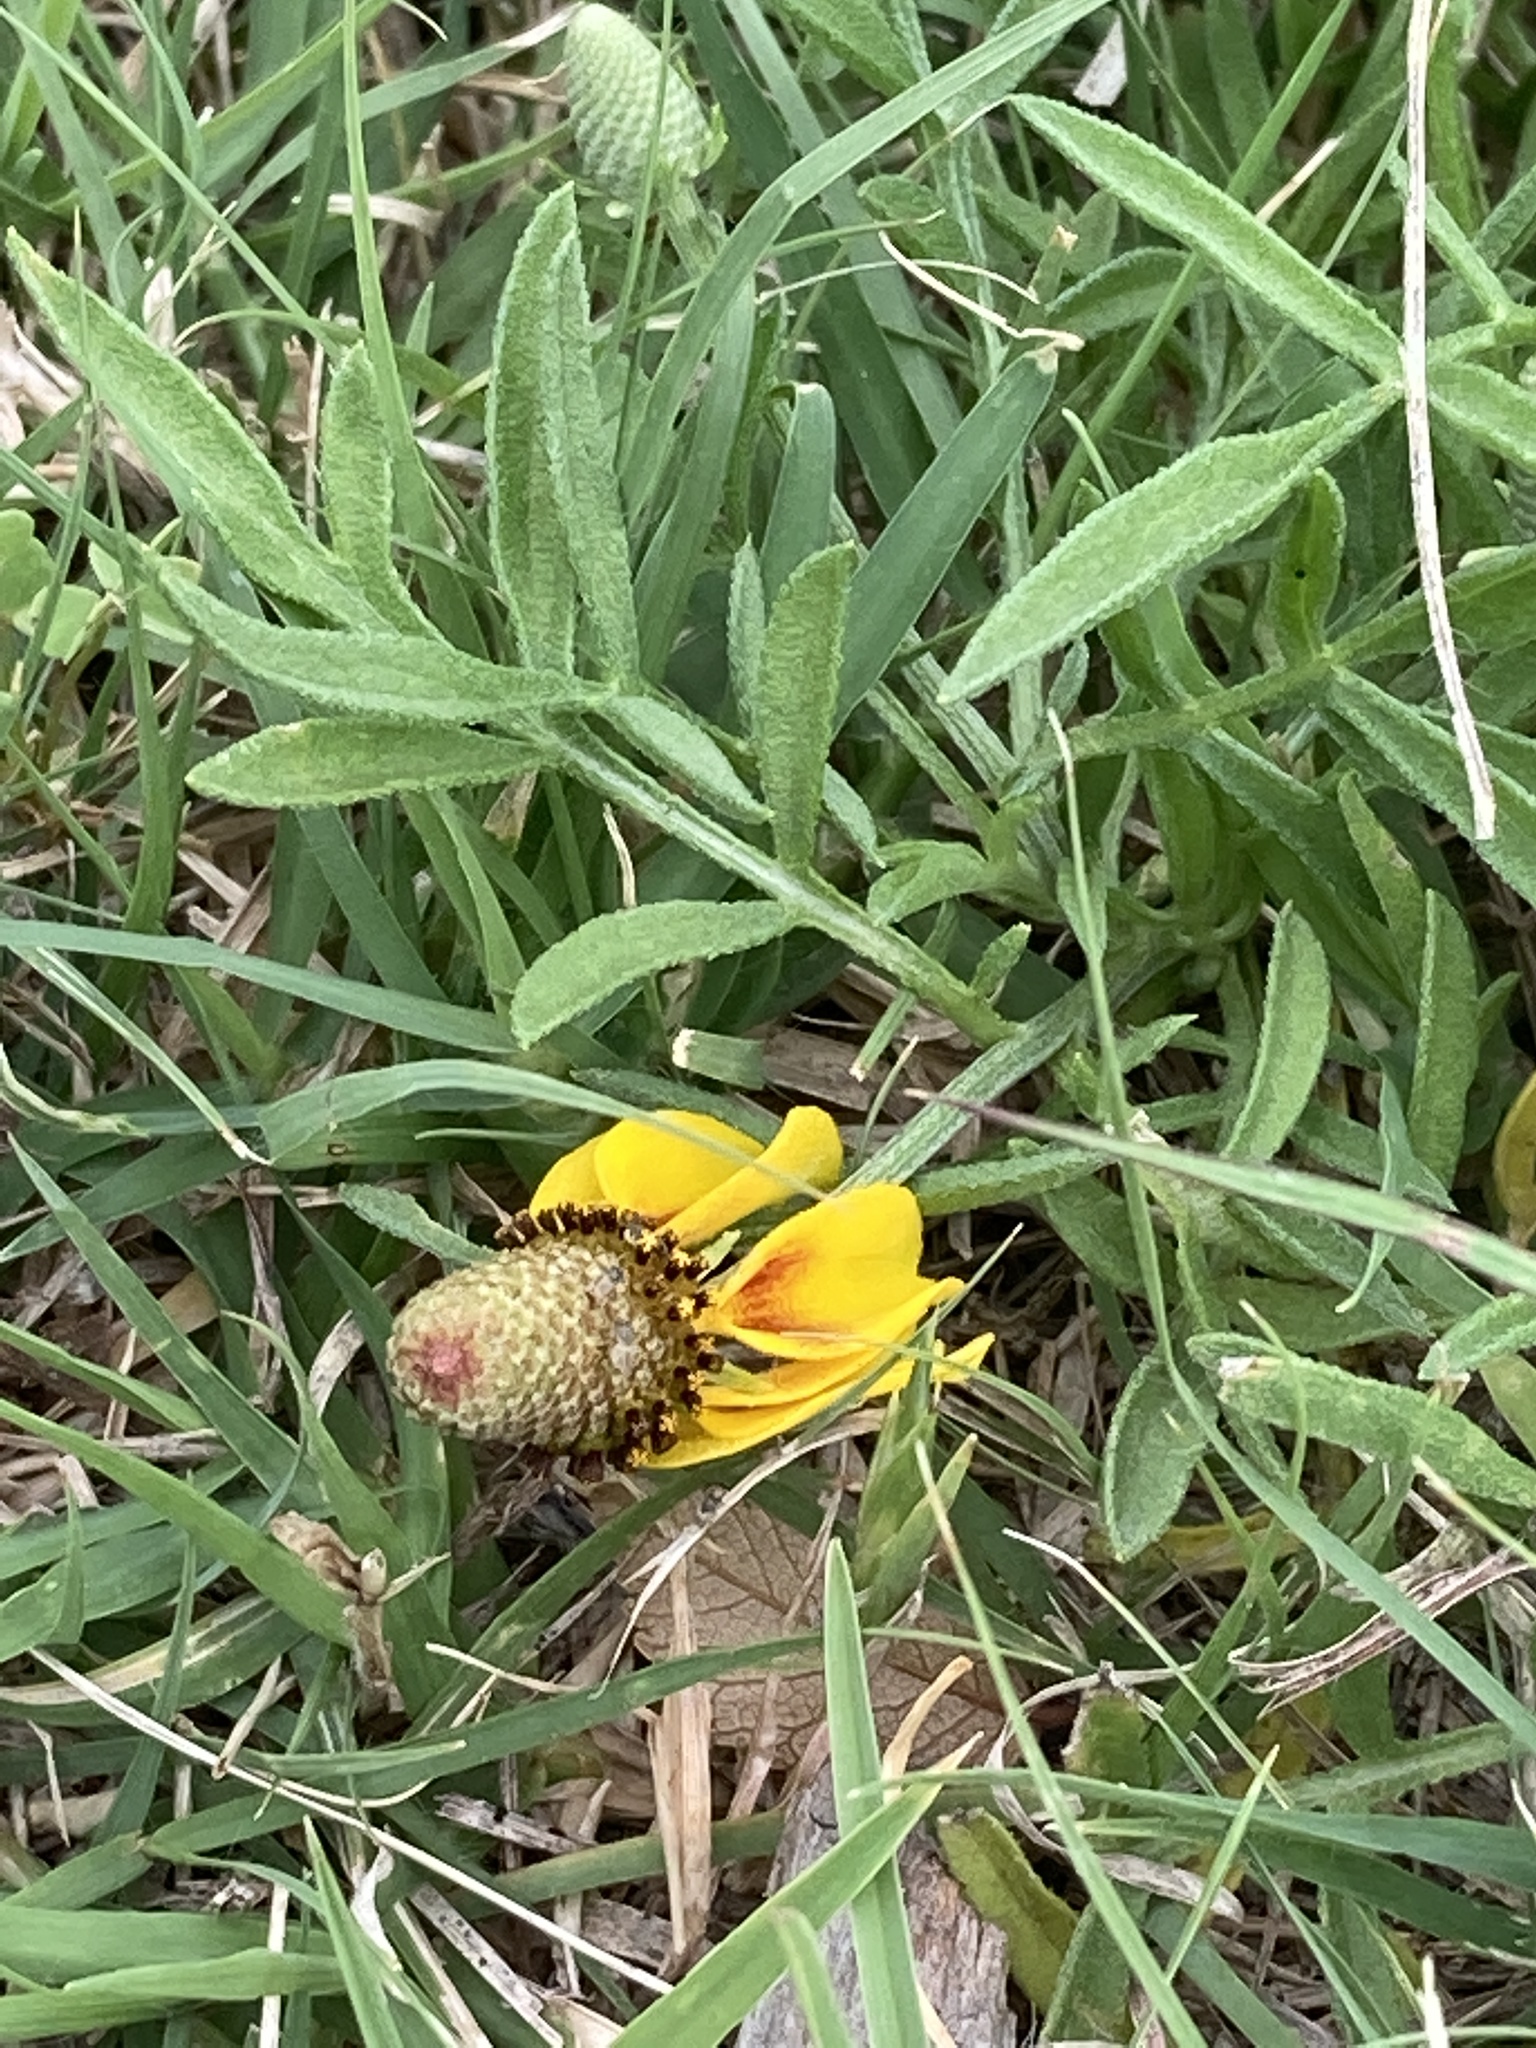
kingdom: Plantae
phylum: Tracheophyta
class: Magnoliopsida
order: Asterales
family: Asteraceae
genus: Ratibida
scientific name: Ratibida columnifera
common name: Prairie coneflower
